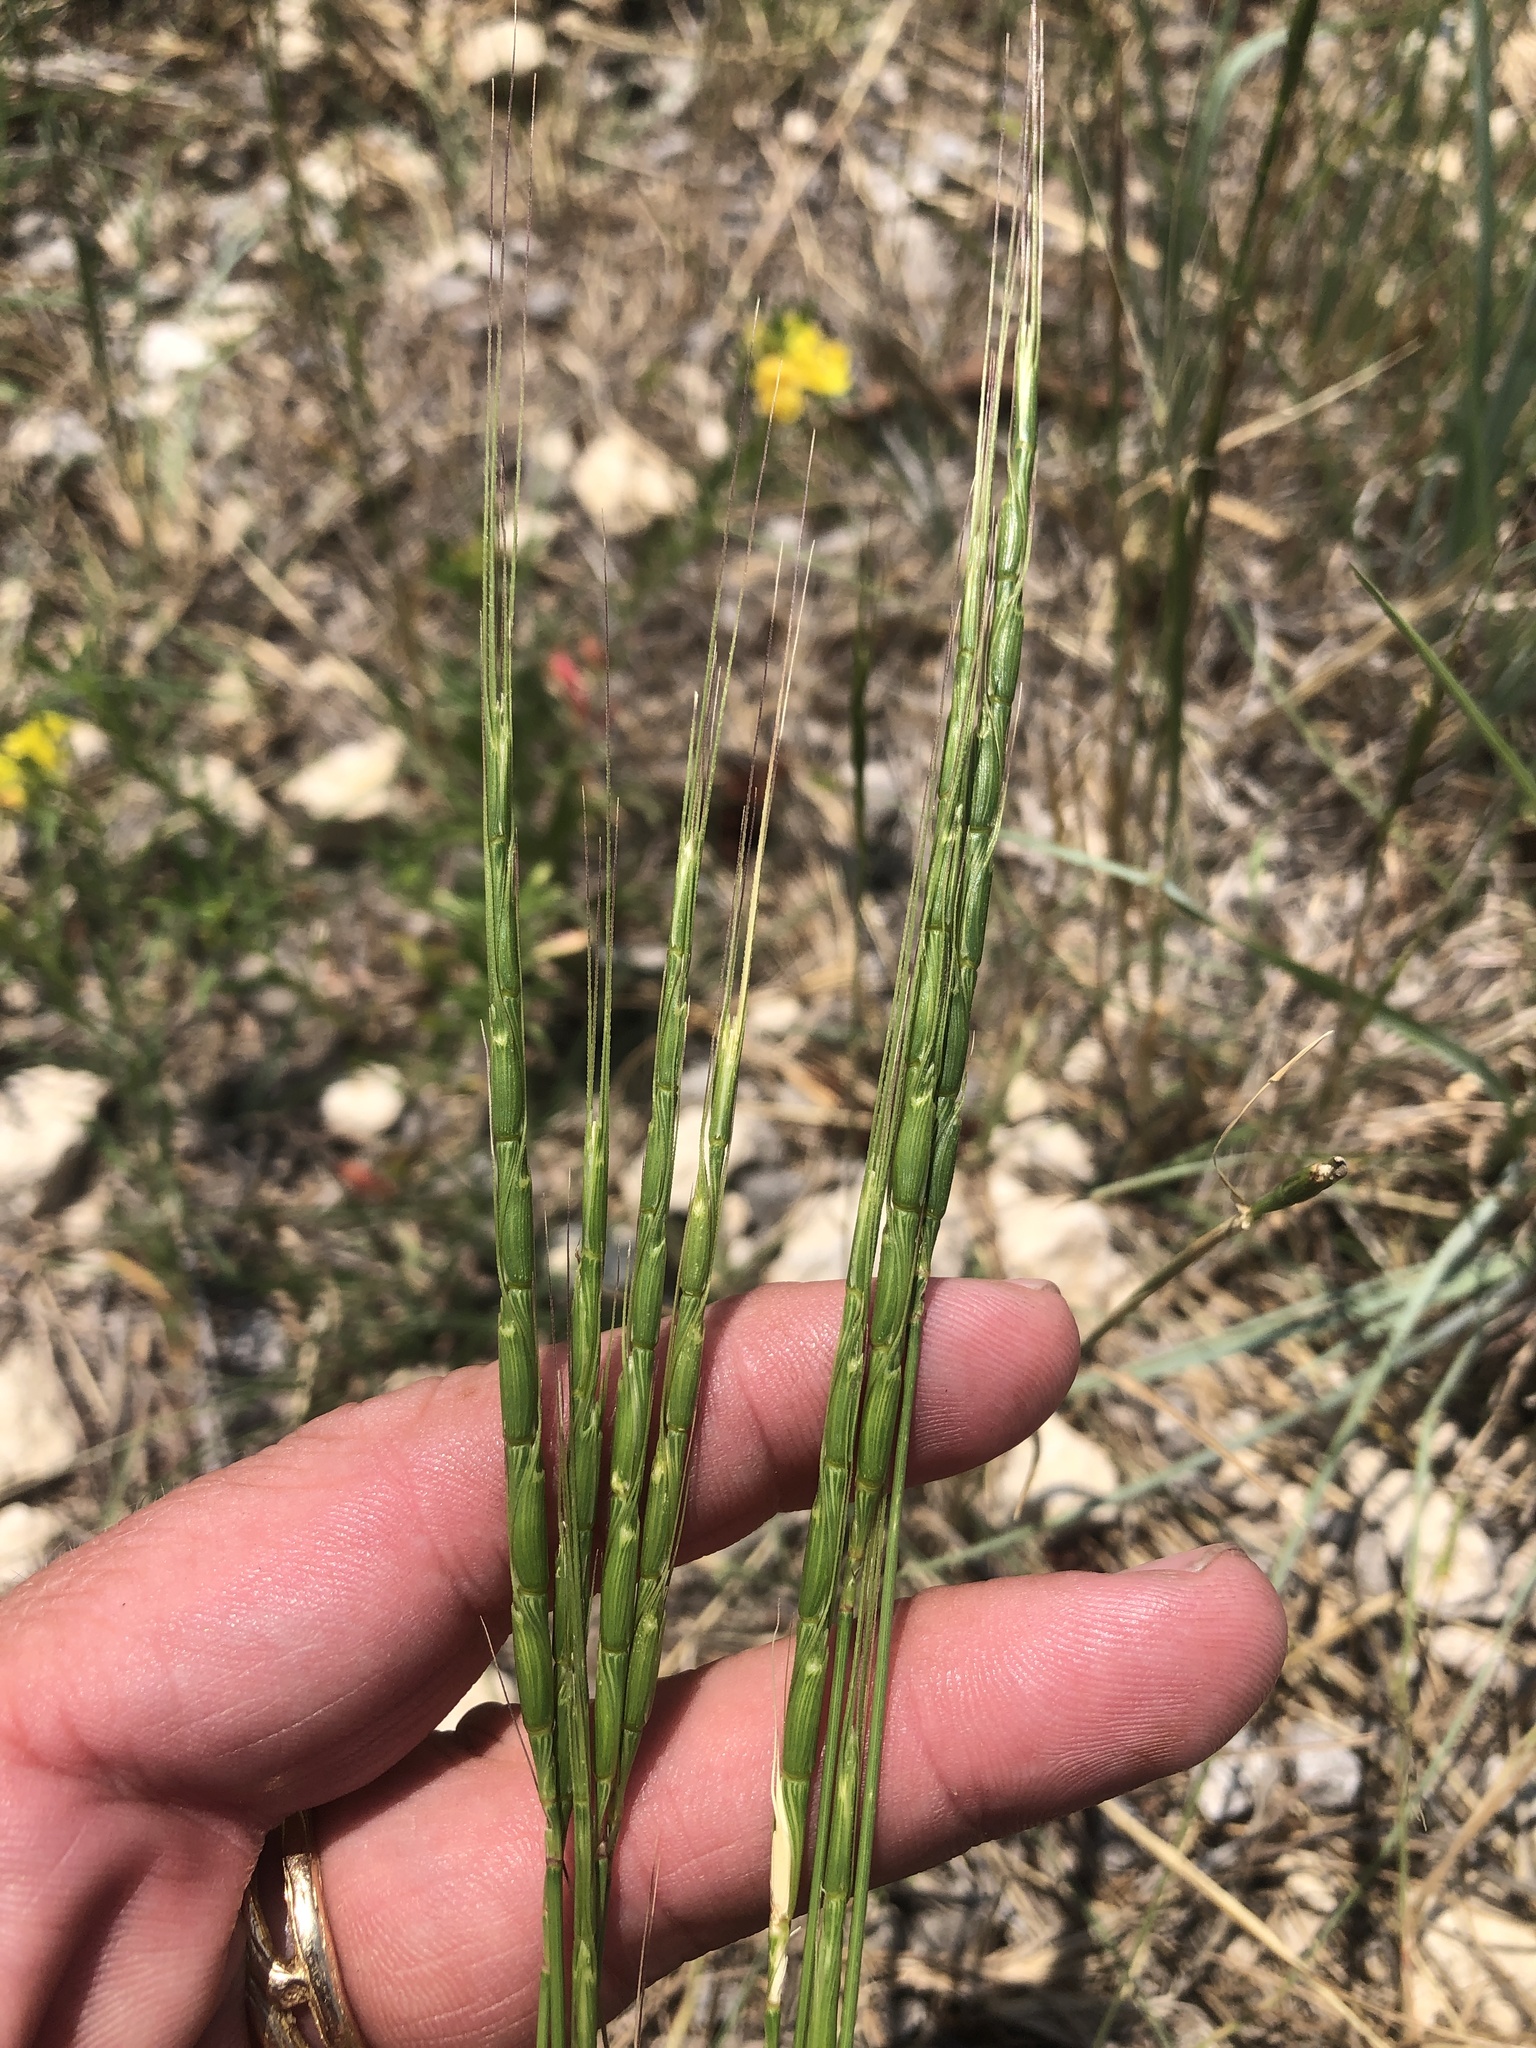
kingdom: Plantae
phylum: Tracheophyta
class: Liliopsida
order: Poales
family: Poaceae
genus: Aegilops
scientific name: Aegilops cylindrica
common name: Jointed goatgrass
